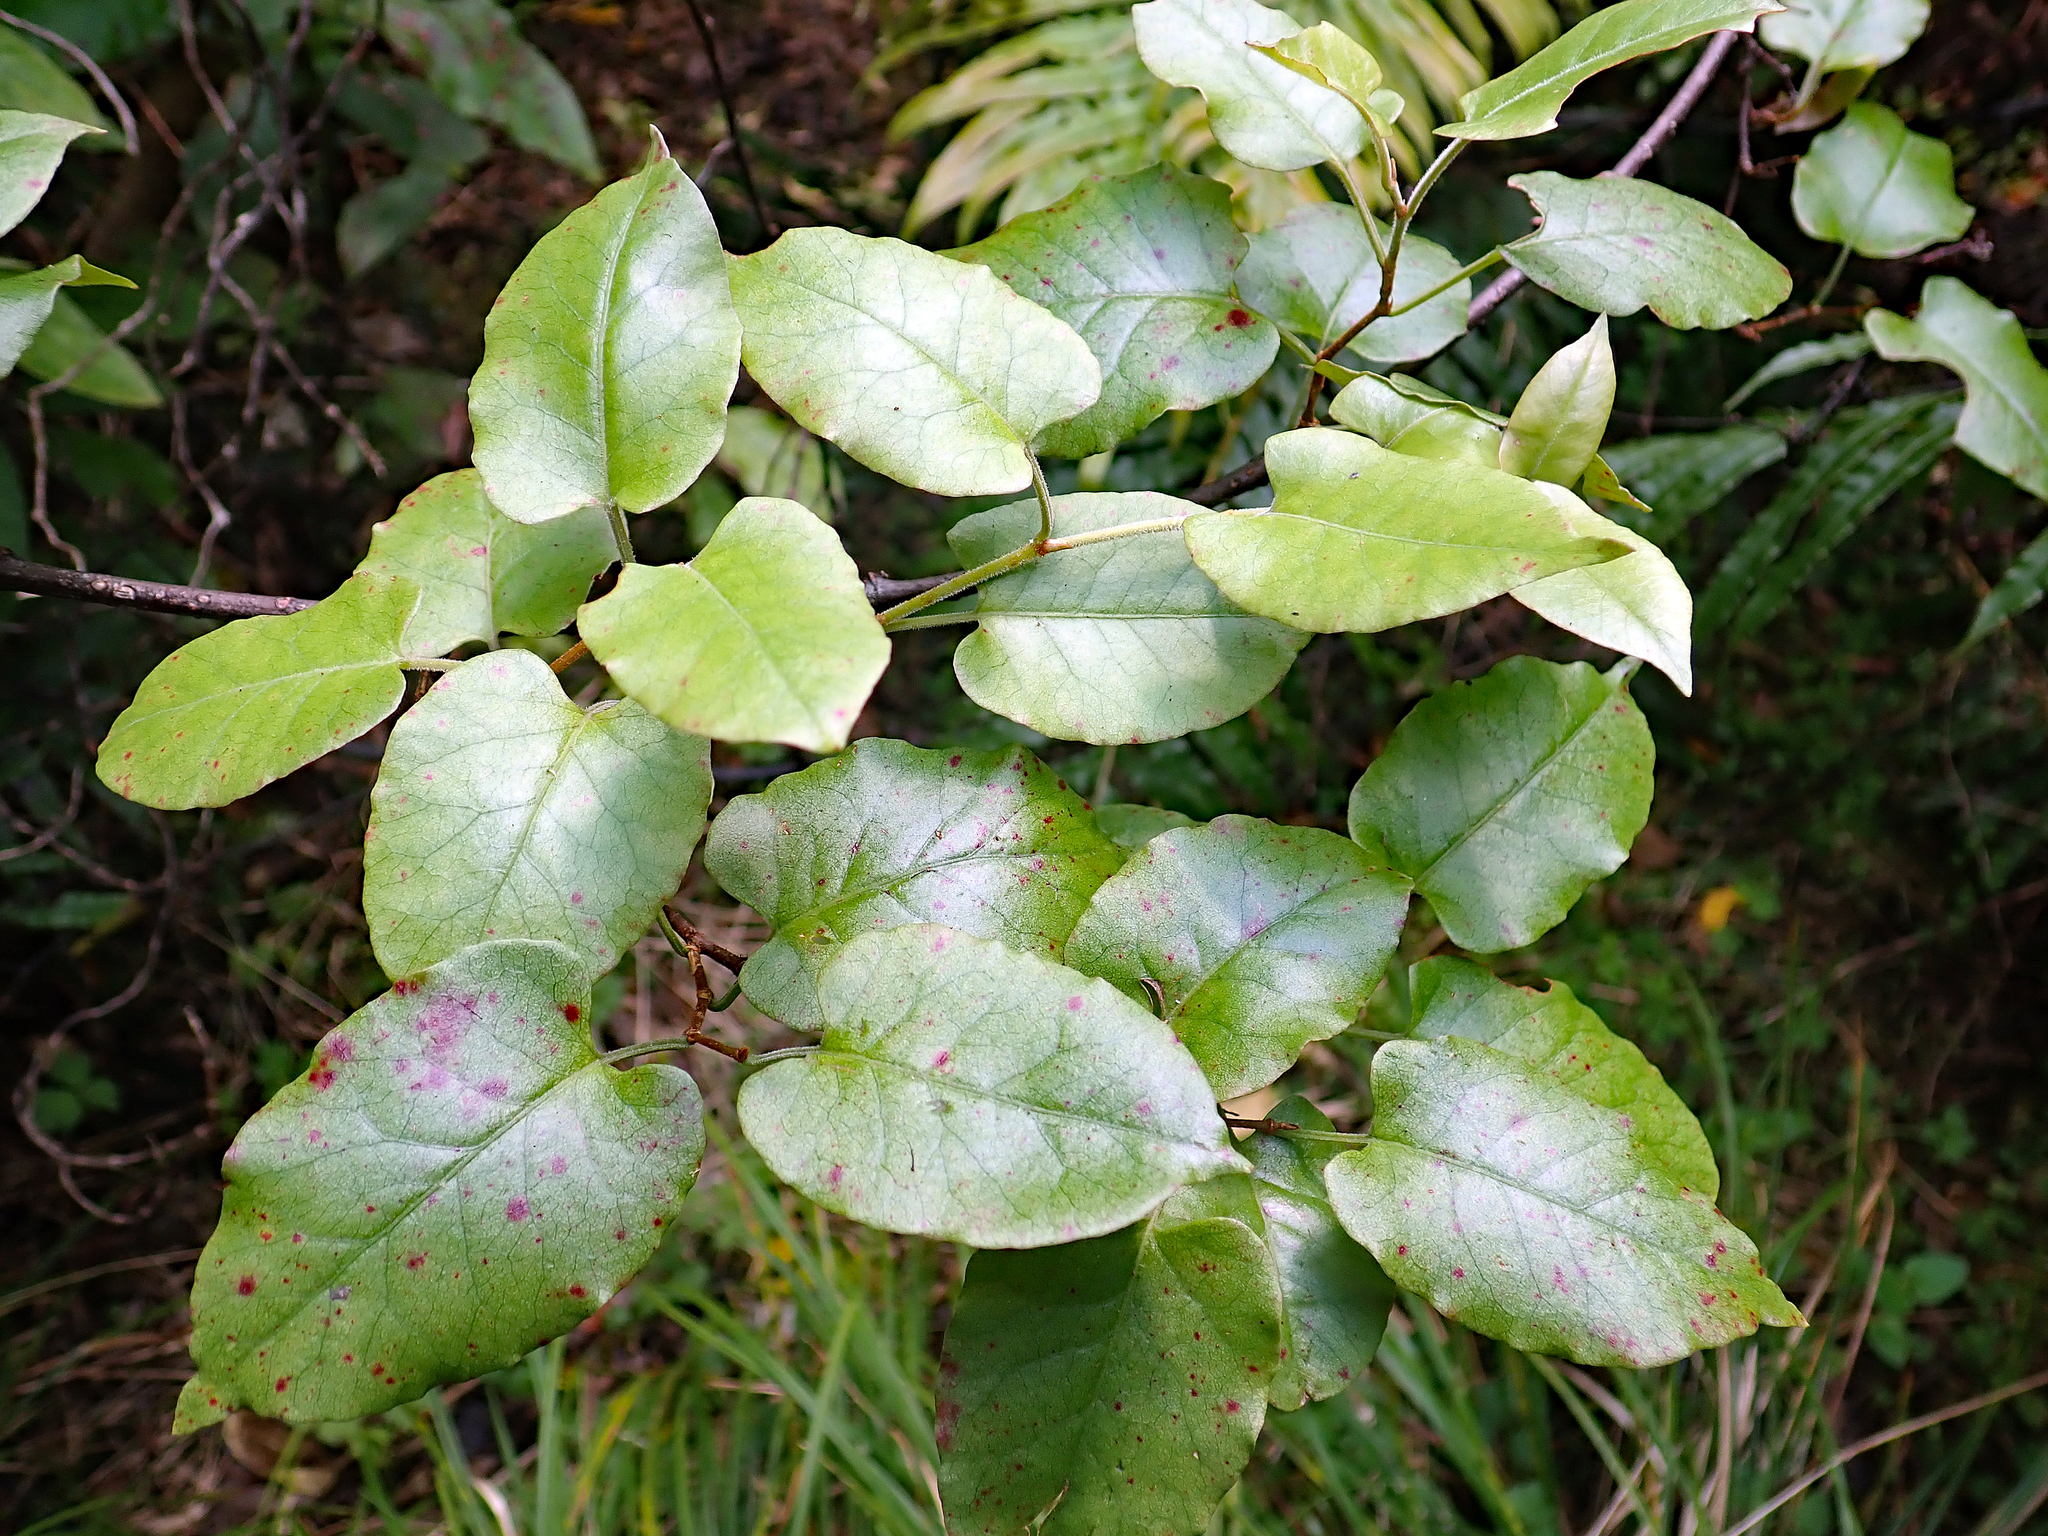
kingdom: Plantae
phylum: Tracheophyta
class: Magnoliopsida
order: Caryophyllales
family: Polygonaceae
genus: Muehlenbeckia
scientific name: Muehlenbeckia complexa
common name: Wireplant
